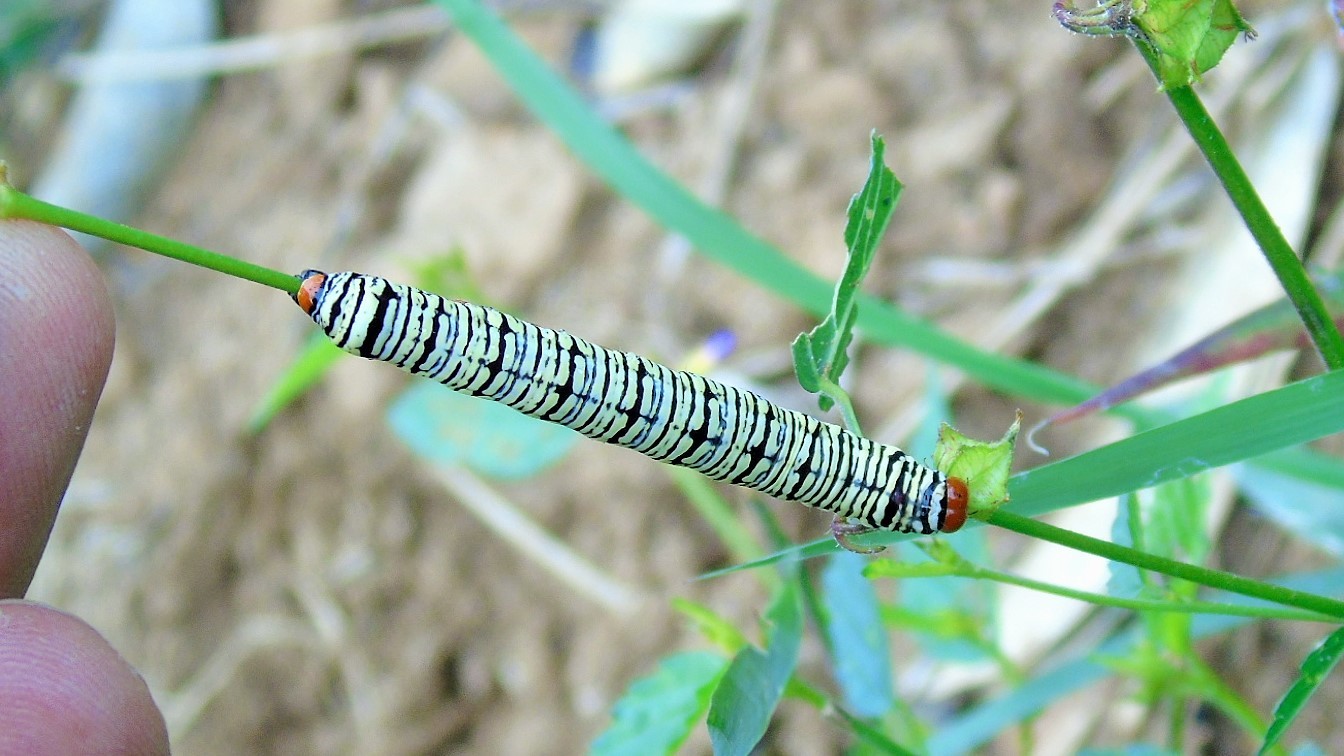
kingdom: Animalia
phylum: Arthropoda
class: Insecta
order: Lepidoptera
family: Erebidae
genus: Diphthera
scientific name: Diphthera festiva
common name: Hieroglyphic moth
